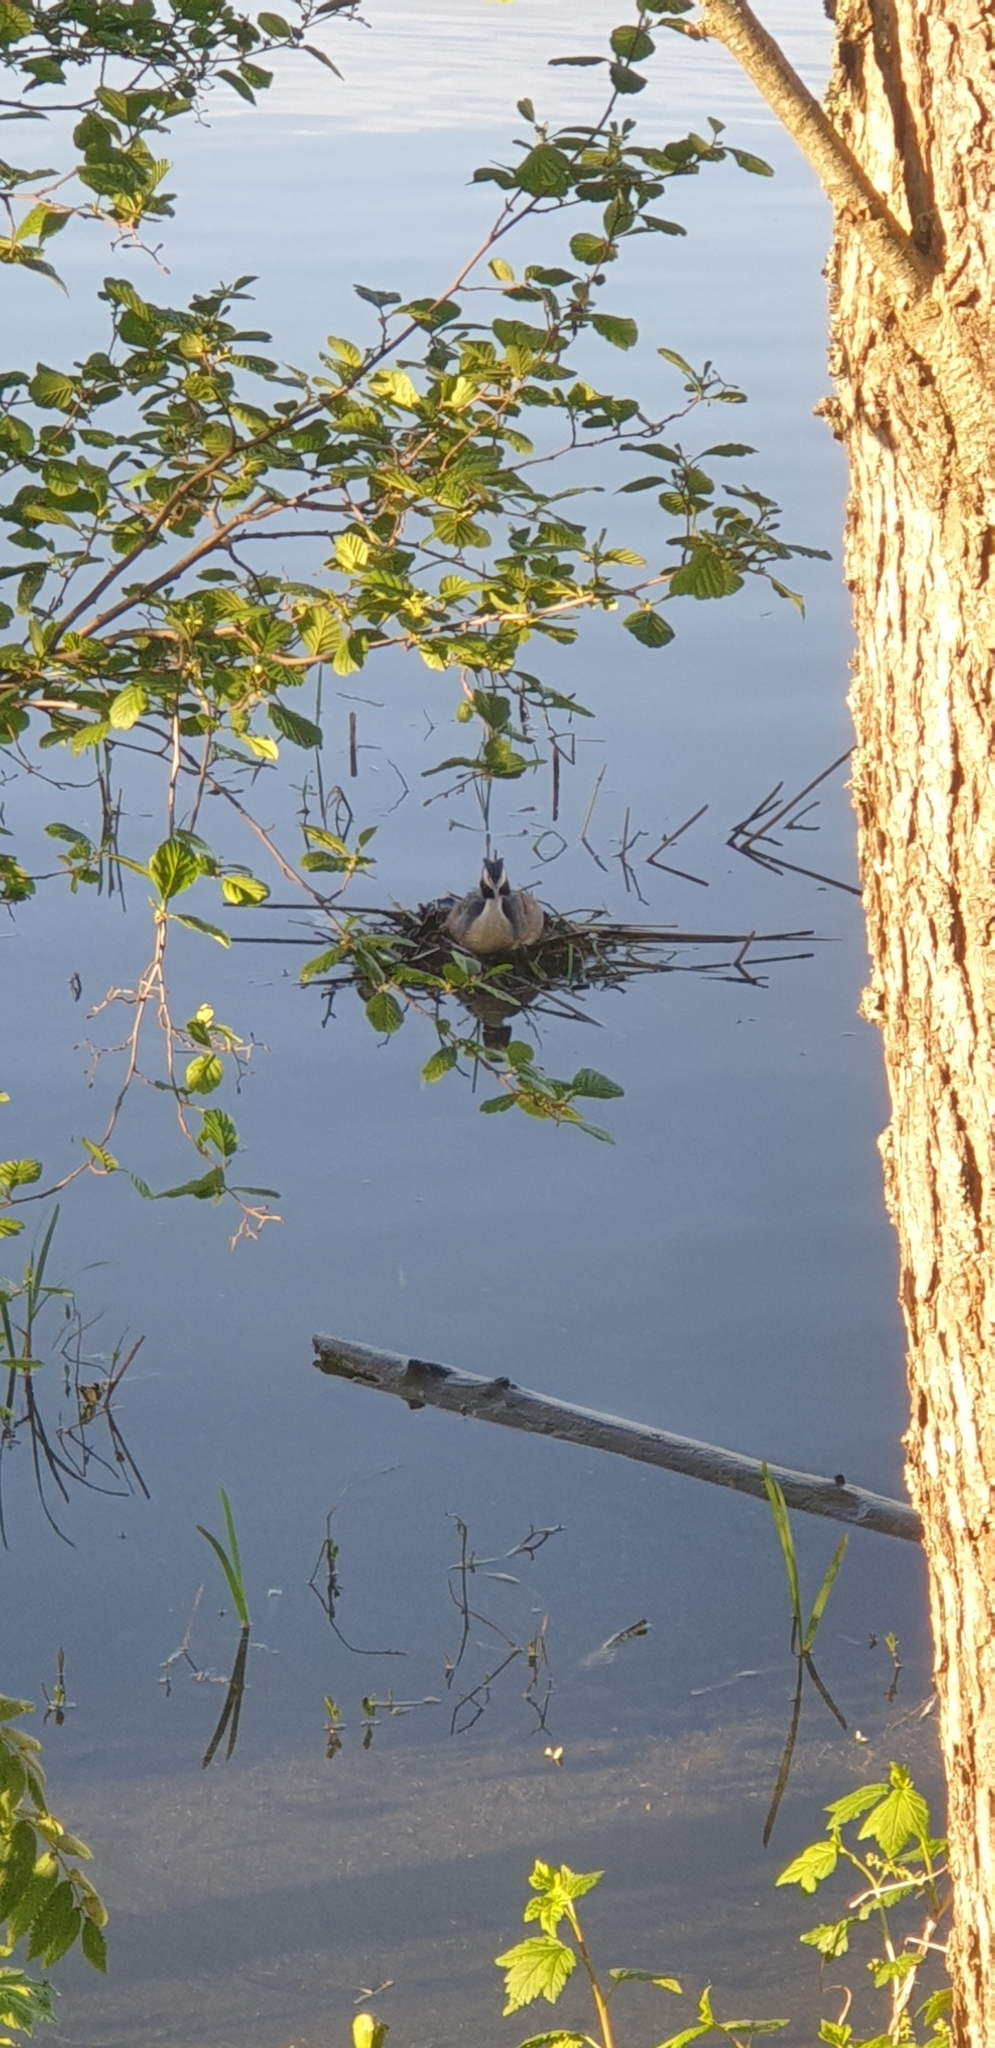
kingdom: Animalia
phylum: Chordata
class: Aves
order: Podicipediformes
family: Podicipedidae
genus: Podiceps
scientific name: Podiceps cristatus
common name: Great crested grebe
